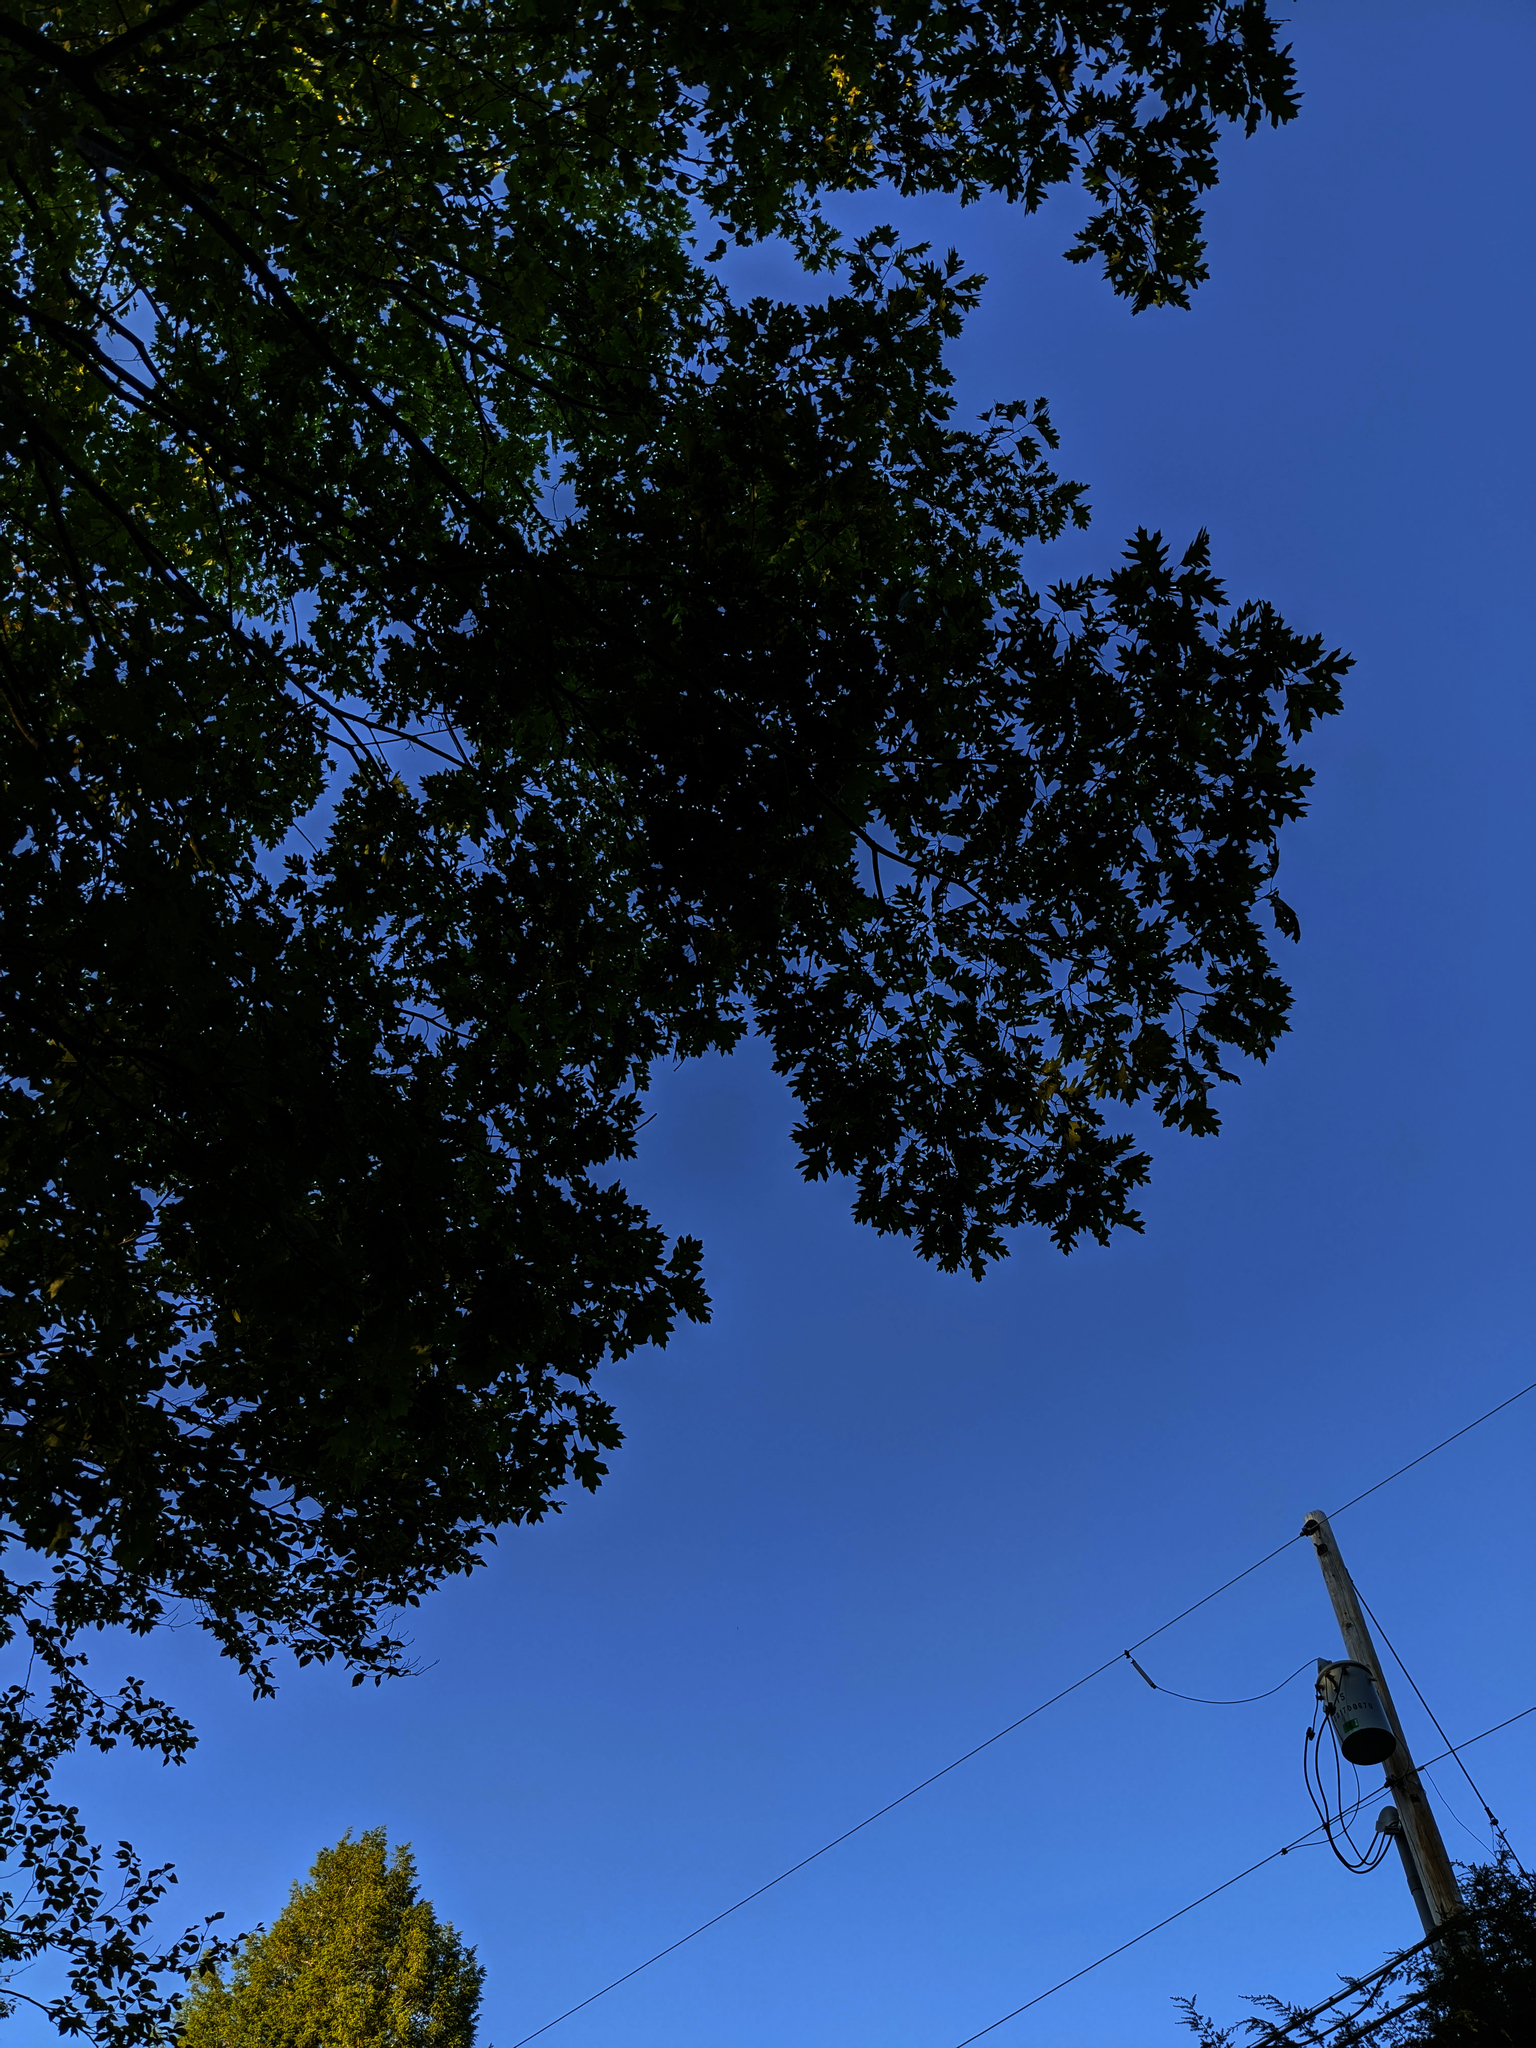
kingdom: Plantae
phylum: Tracheophyta
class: Magnoliopsida
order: Fagales
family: Fagaceae
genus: Quercus
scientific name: Quercus rubra
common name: Red oak
